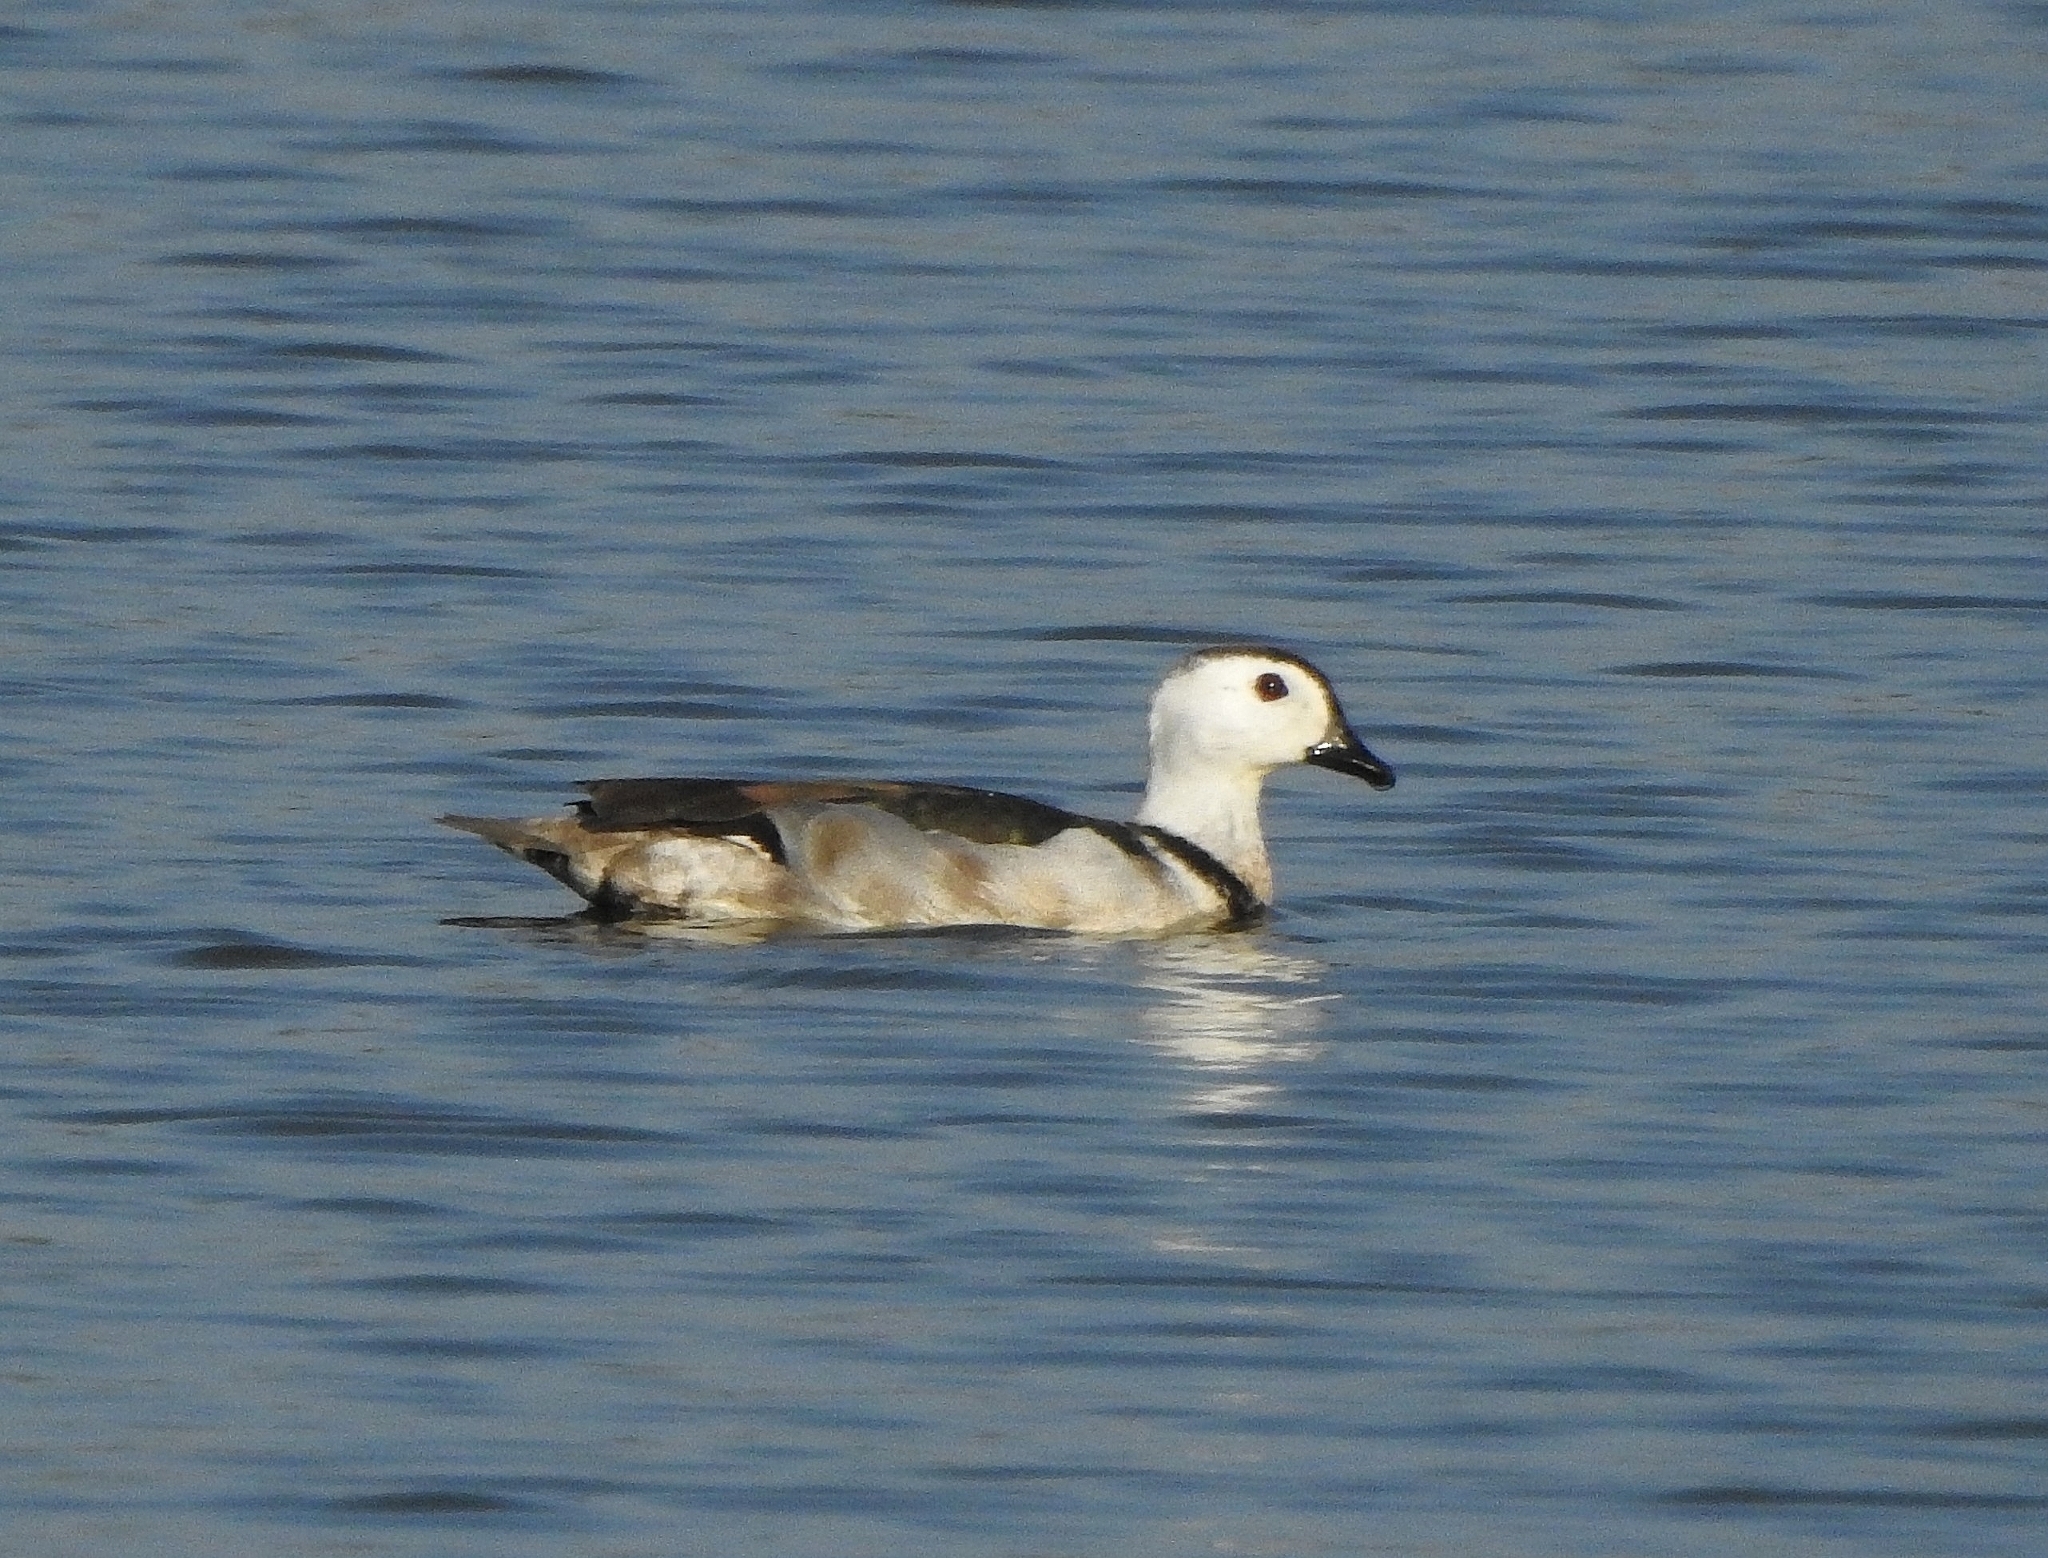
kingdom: Animalia
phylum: Chordata
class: Aves
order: Anseriformes
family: Anatidae
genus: Nettapus
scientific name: Nettapus coromandelianus
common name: Cotton pygmy-goose
